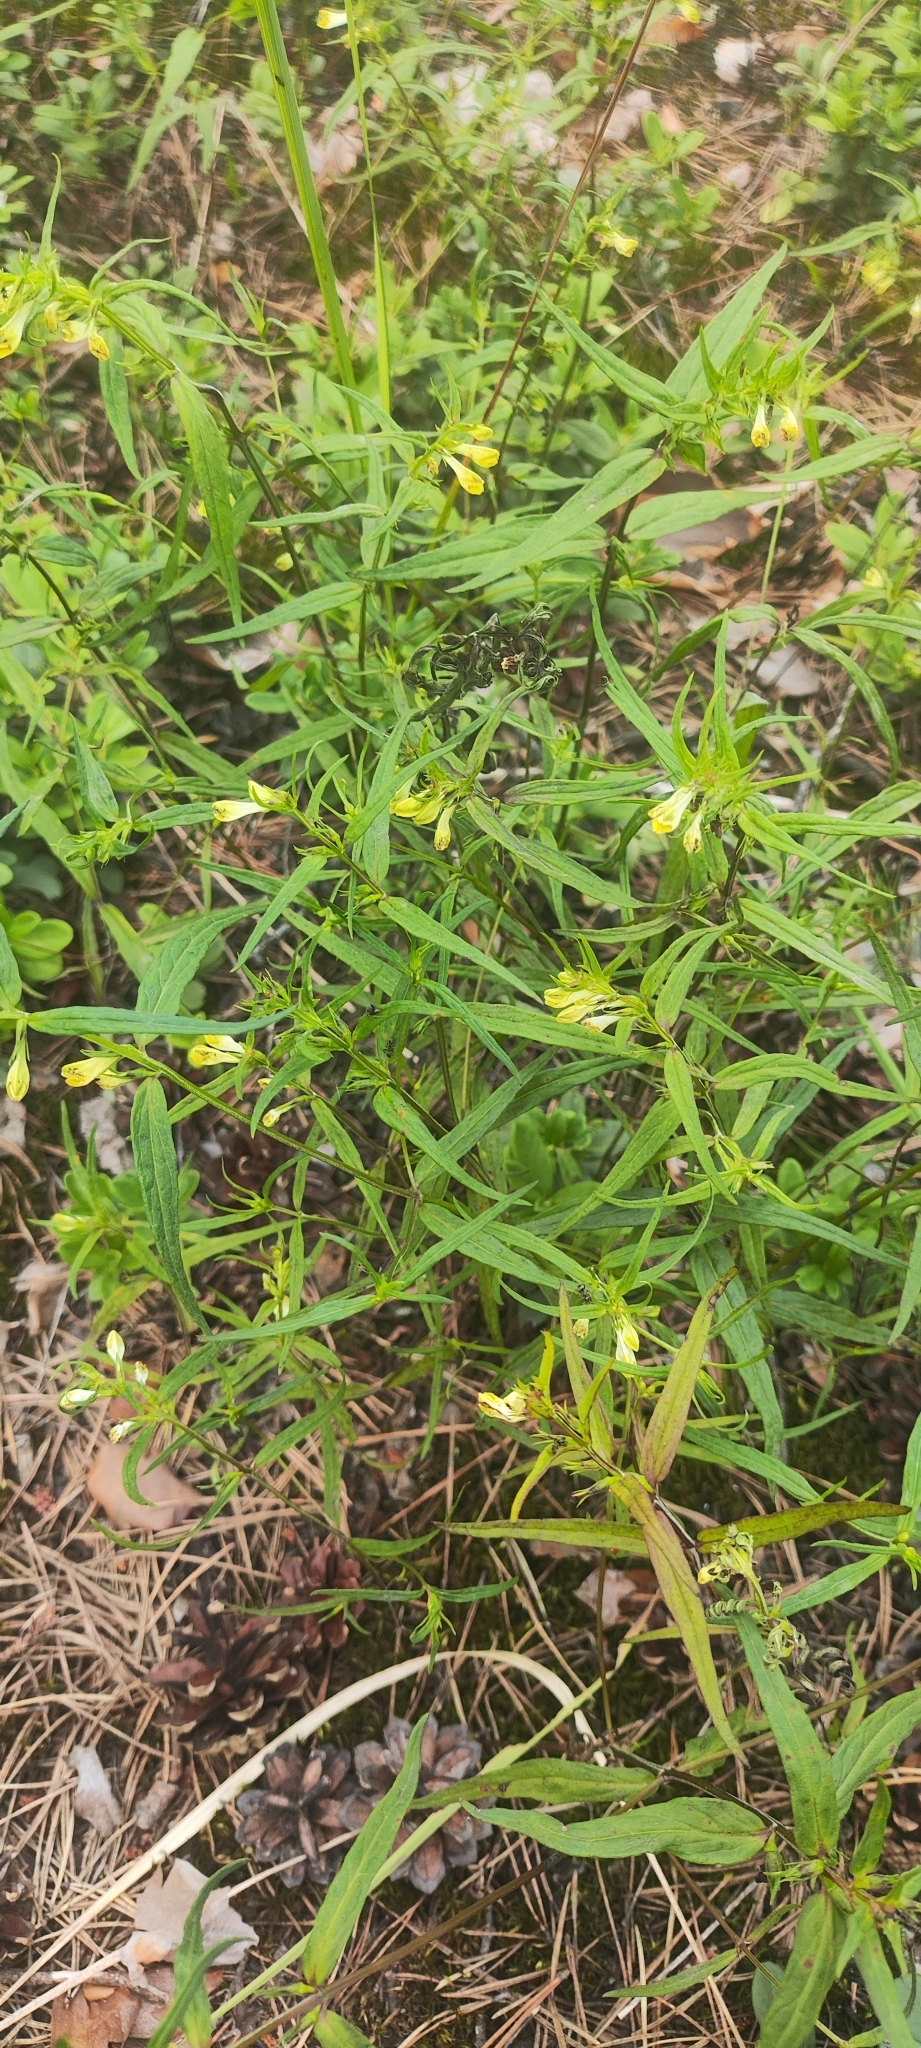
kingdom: Plantae
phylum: Tracheophyta
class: Magnoliopsida
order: Lamiales
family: Orobanchaceae
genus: Melampyrum
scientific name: Melampyrum pratense
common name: Common cow-wheat
